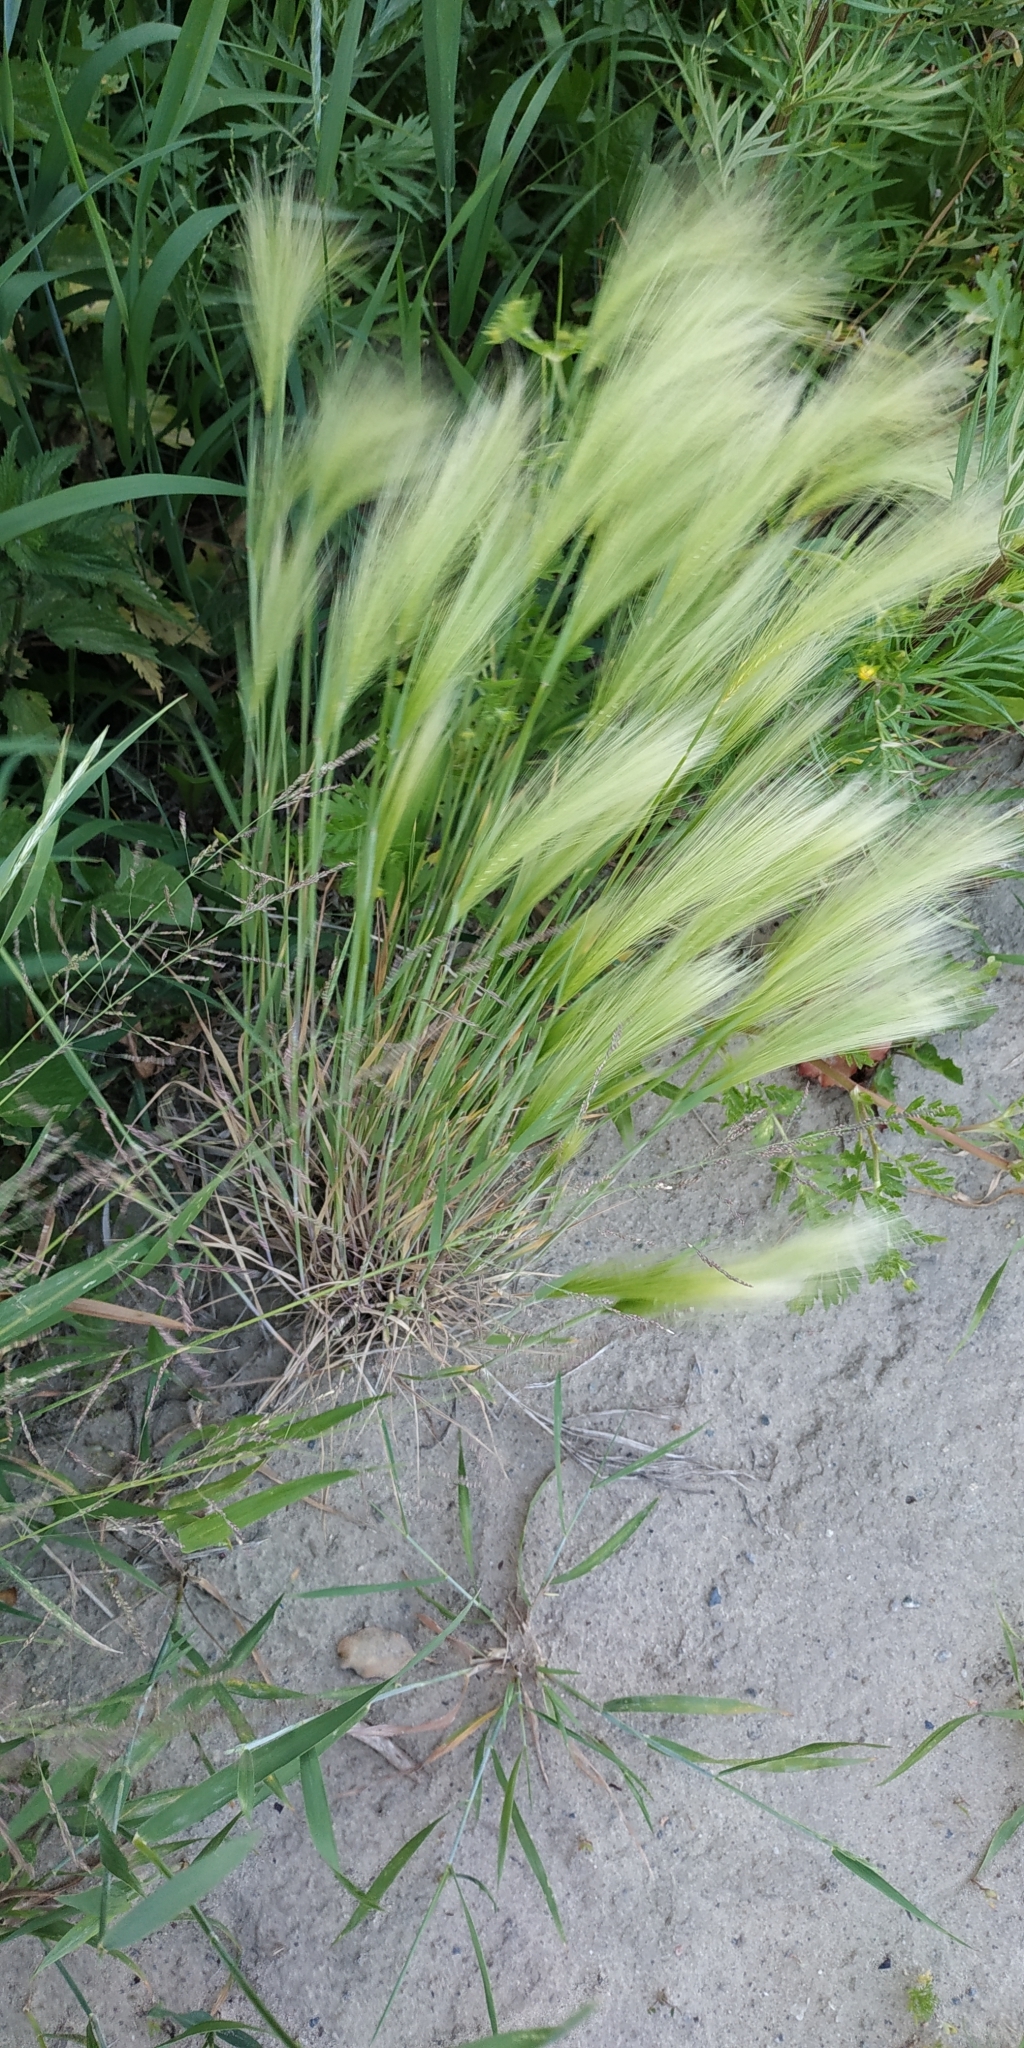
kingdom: Plantae
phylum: Tracheophyta
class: Liliopsida
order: Poales
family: Poaceae
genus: Hordeum
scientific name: Hordeum jubatum
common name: Foxtail barley
